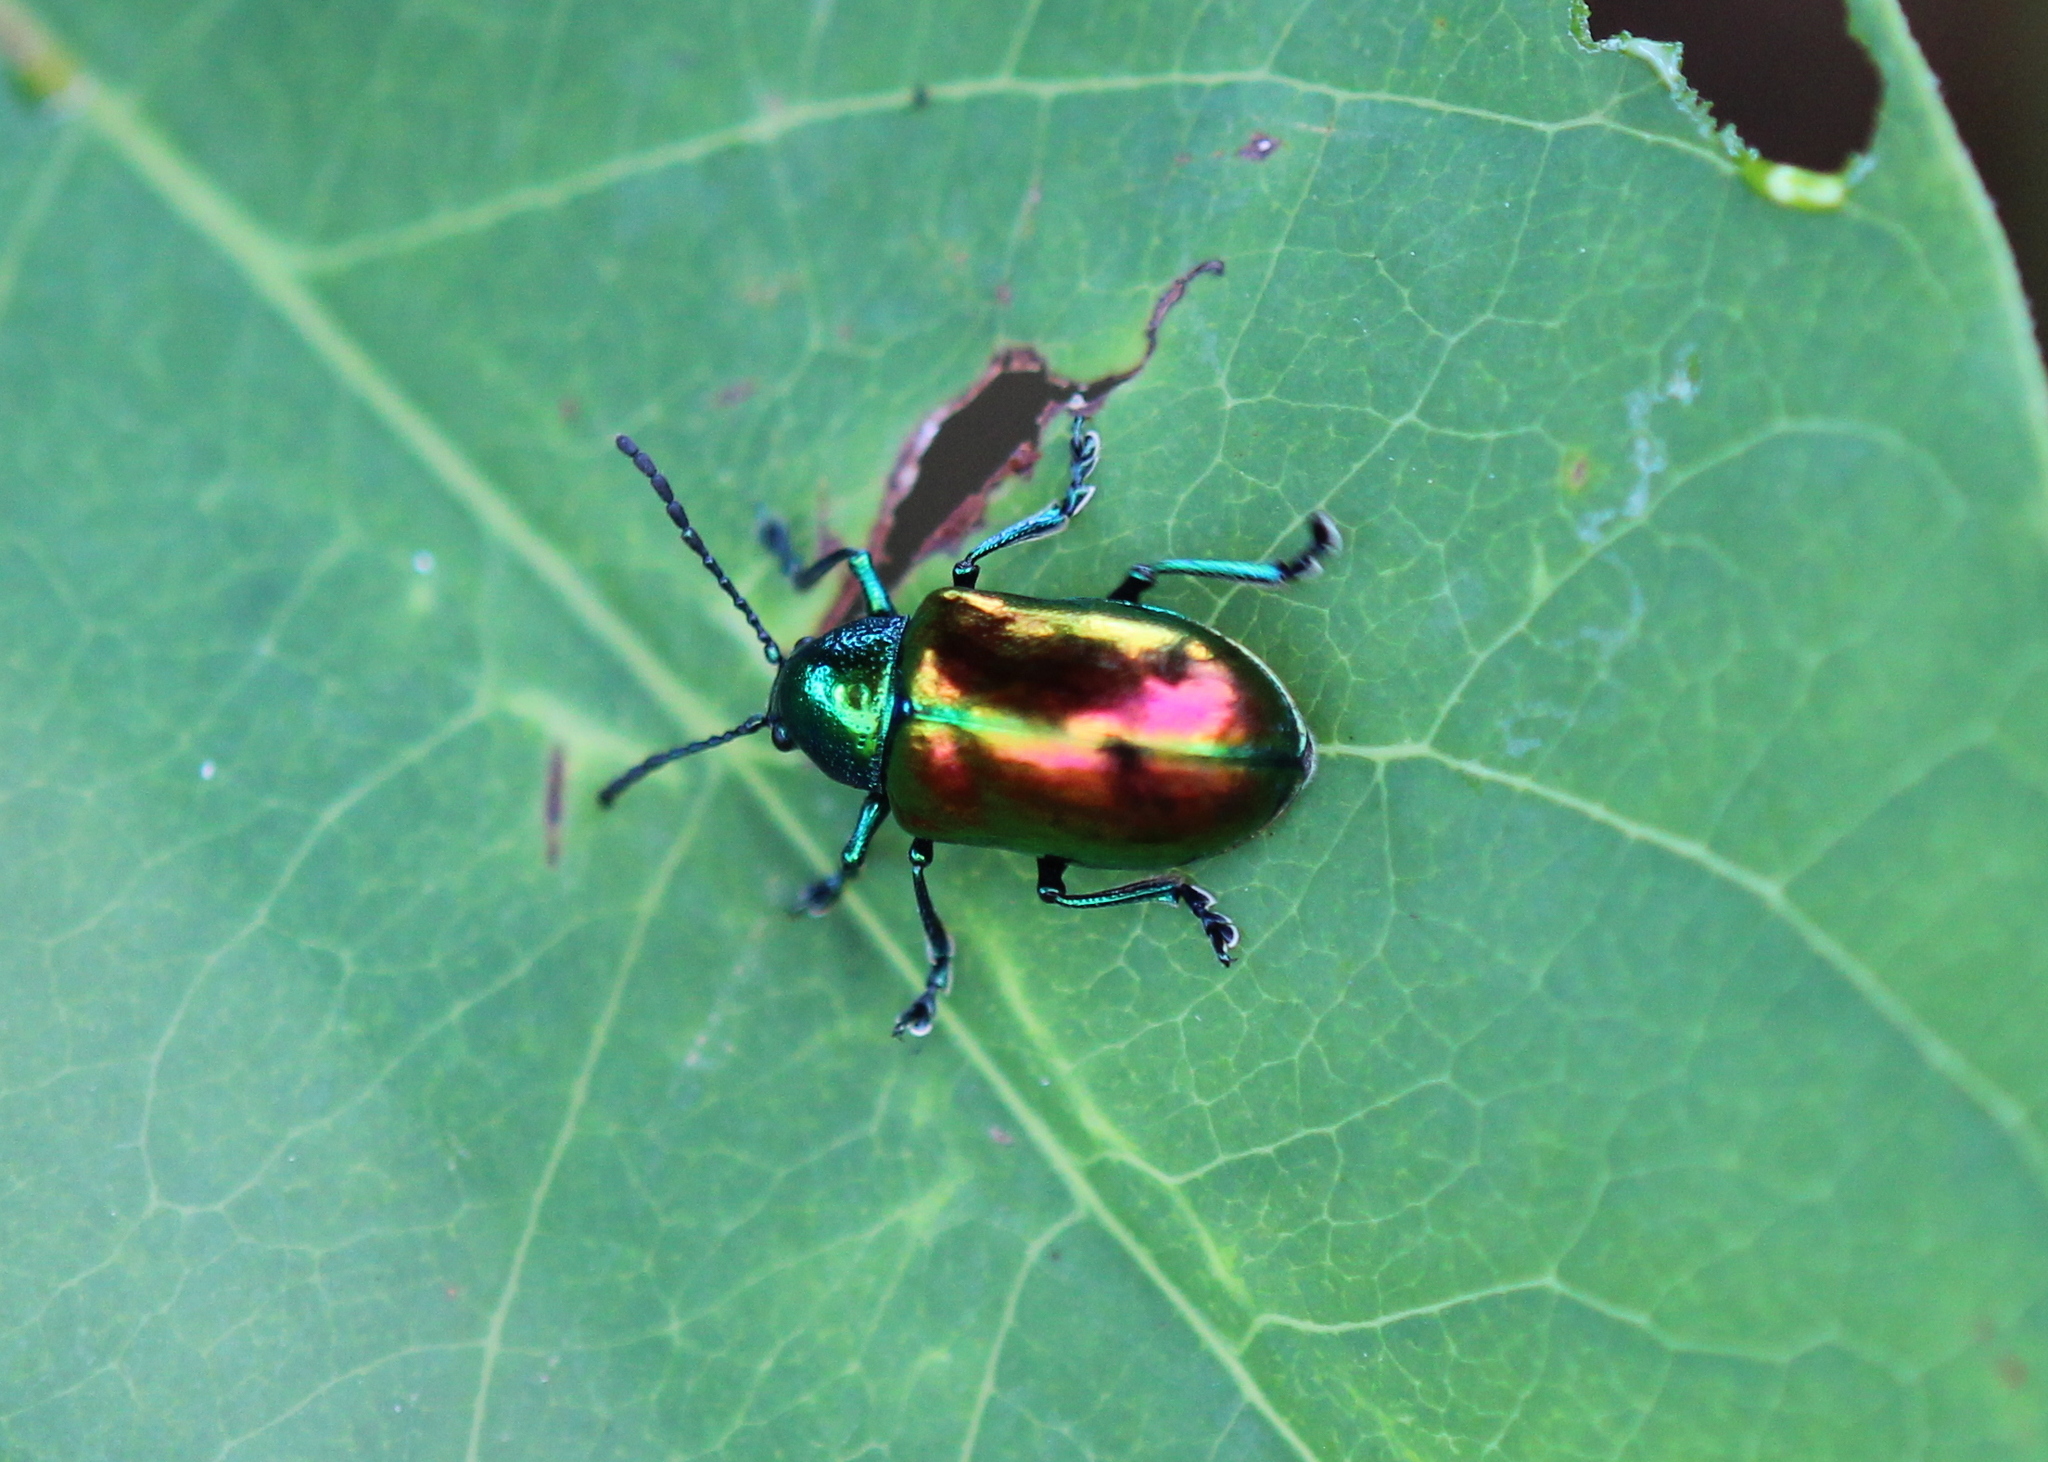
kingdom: Animalia
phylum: Arthropoda
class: Insecta
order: Coleoptera
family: Chrysomelidae
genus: Chrysochus
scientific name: Chrysochus auratus
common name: Dogbane leaf beetle
